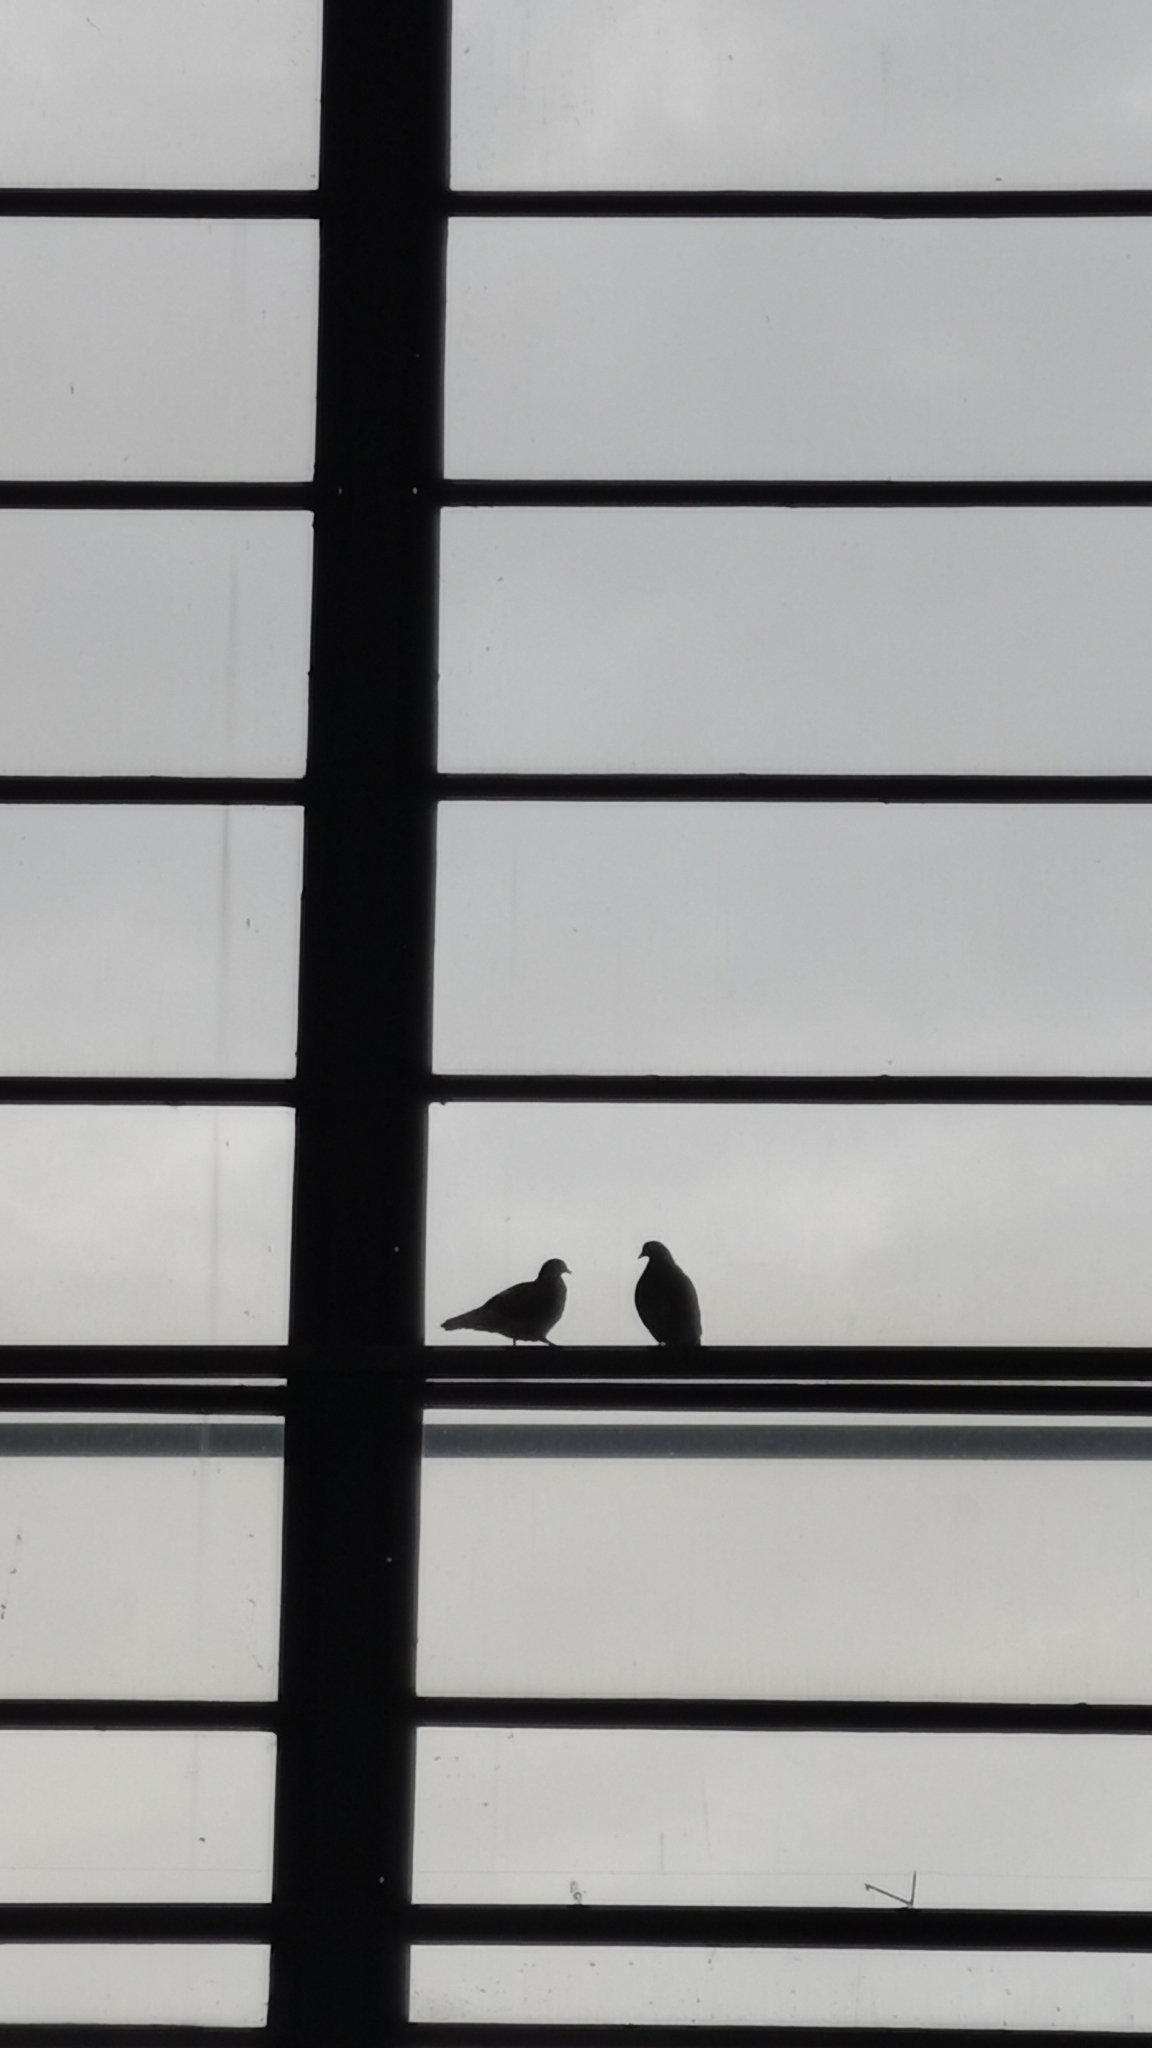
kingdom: Animalia
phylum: Chordata
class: Aves
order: Columbiformes
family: Columbidae
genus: Columba
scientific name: Columba livia
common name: Rock pigeon
